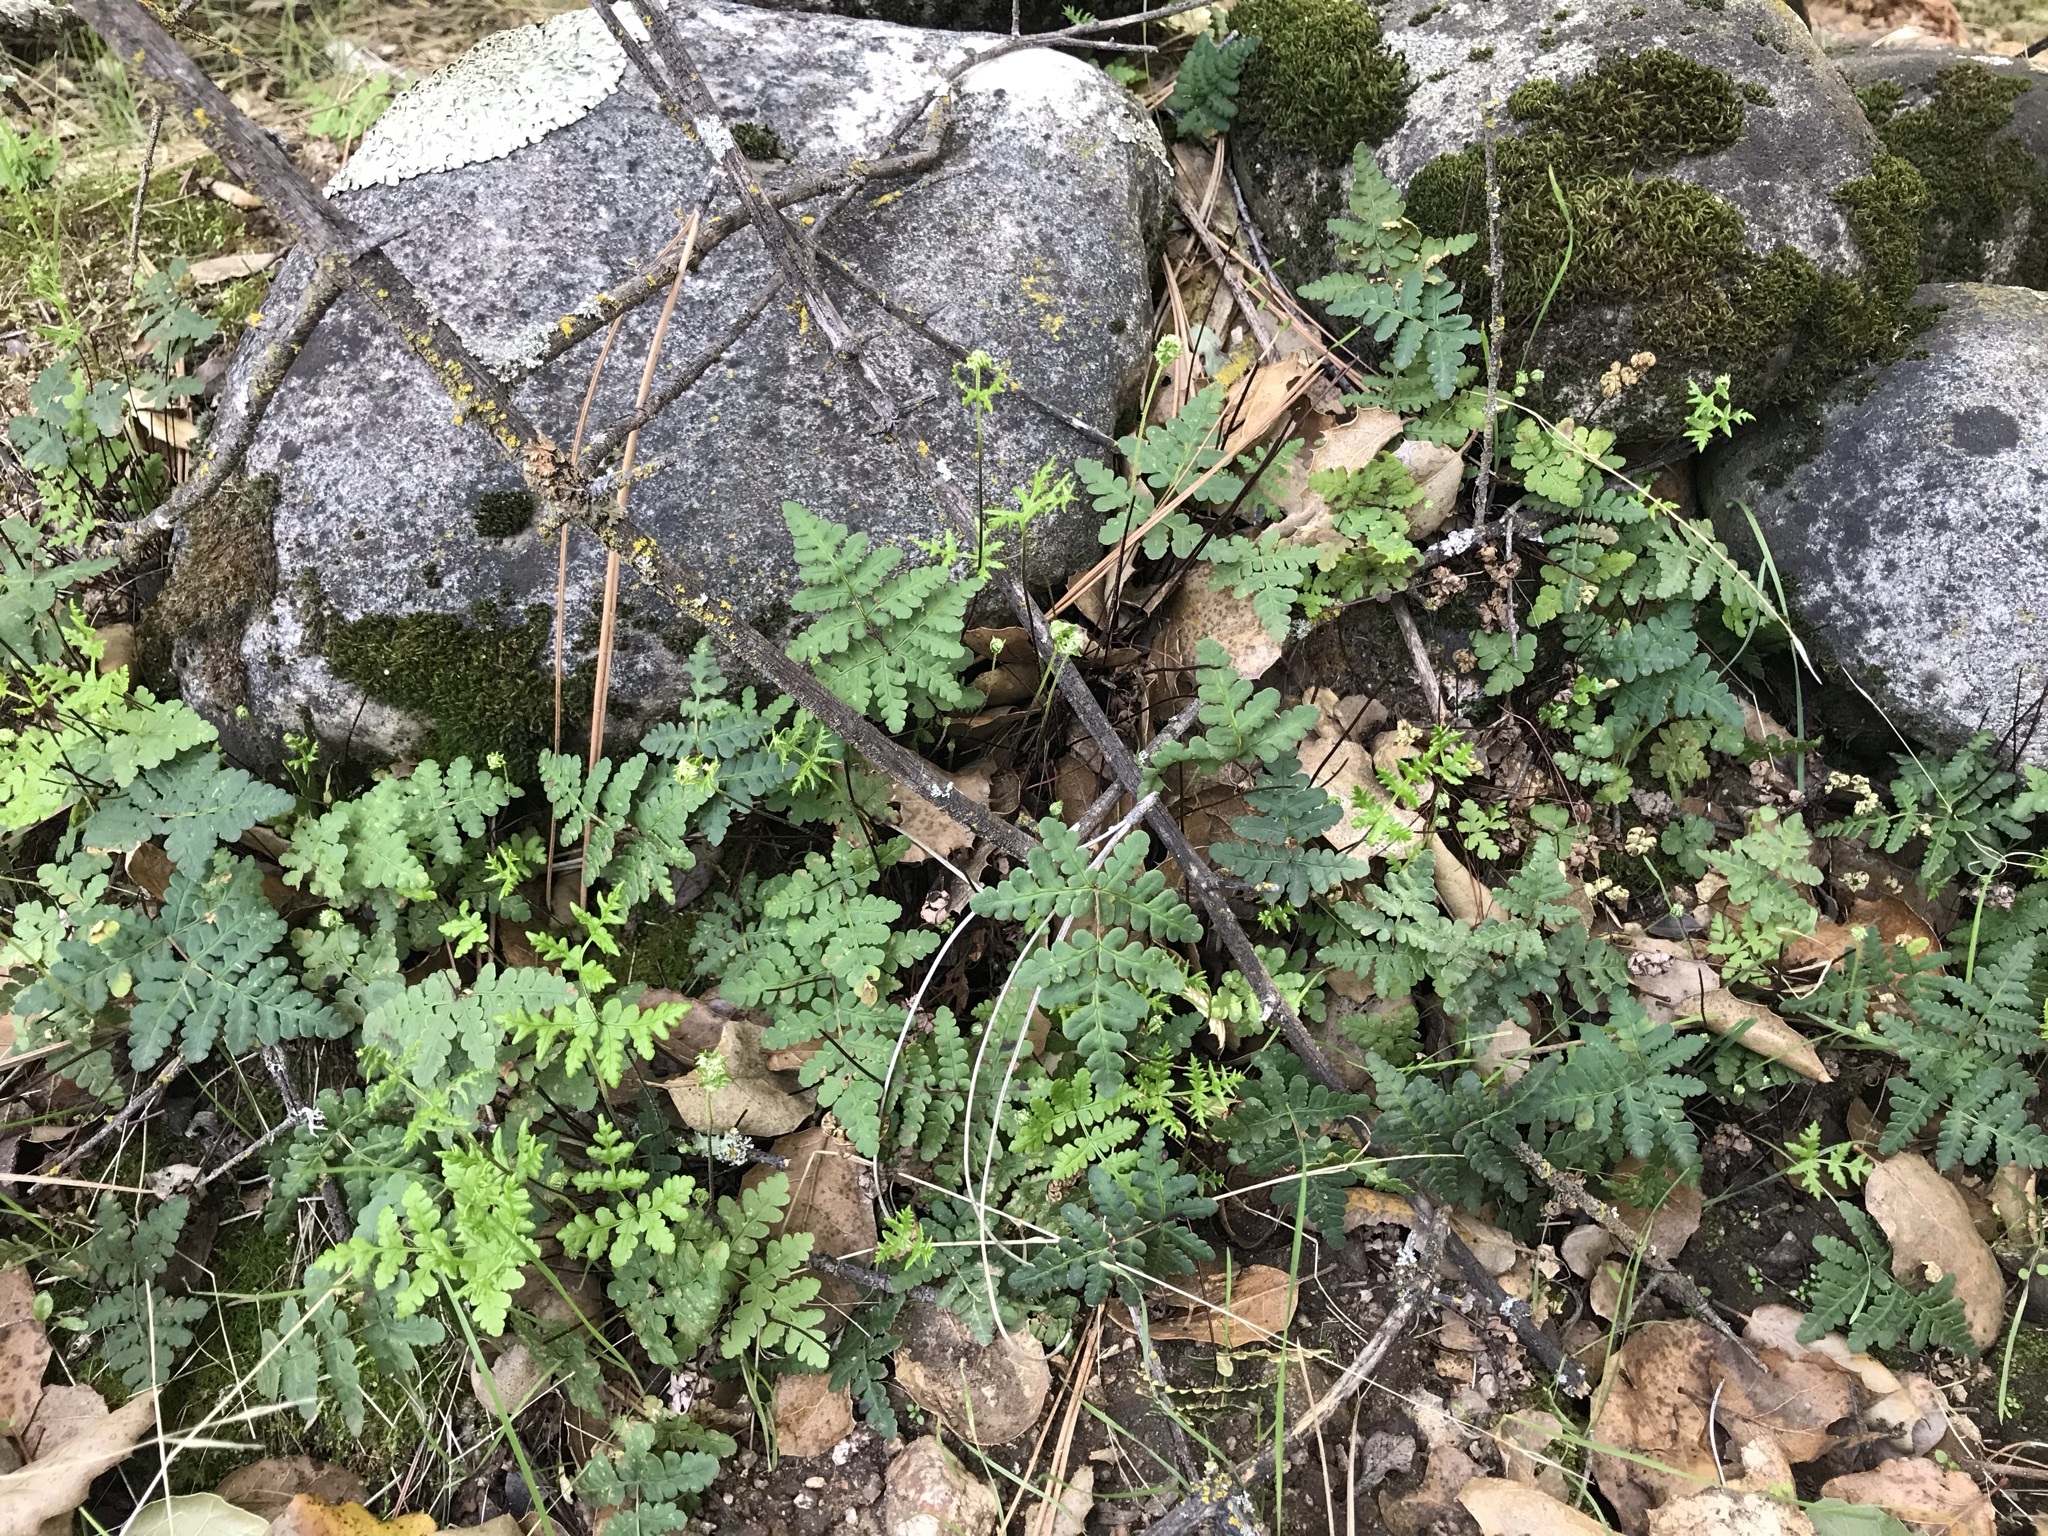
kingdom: Plantae
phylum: Tracheophyta
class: Polypodiopsida
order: Polypodiales
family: Pteridaceae
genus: Pentagramma
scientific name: Pentagramma triangularis
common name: Gold fern
